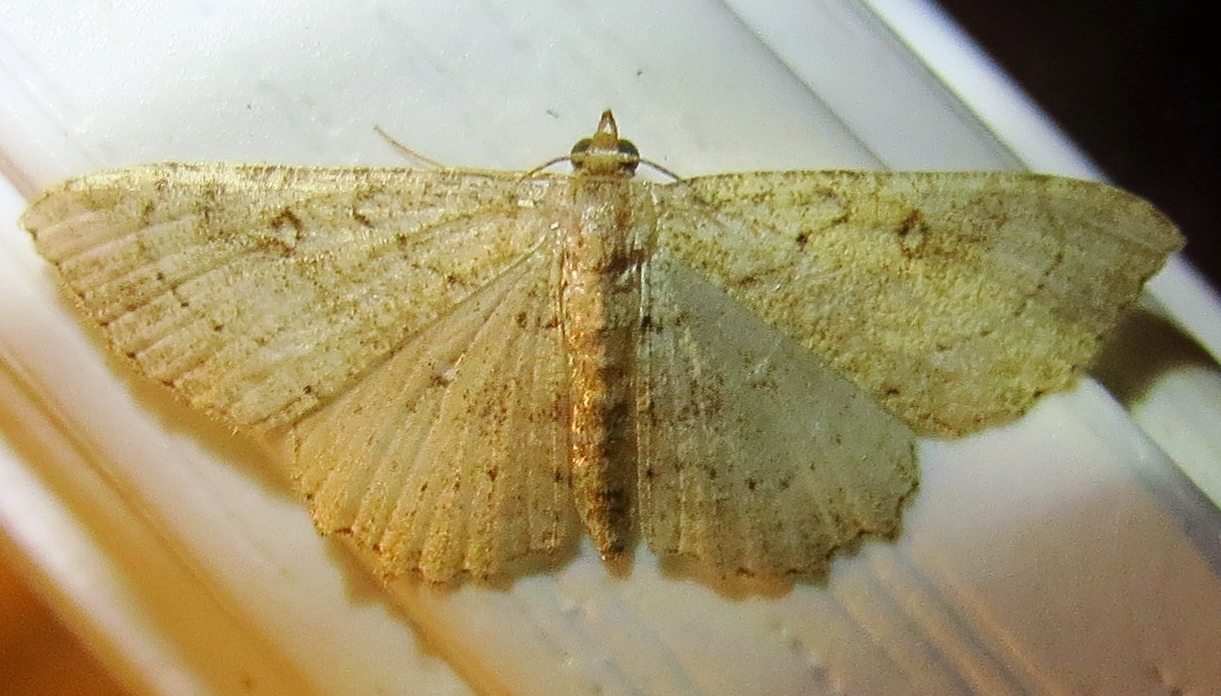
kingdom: Animalia
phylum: Arthropoda
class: Insecta
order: Lepidoptera
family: Geometridae
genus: Cyclophora
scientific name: Cyclophora nanaria
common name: Cankerworm
